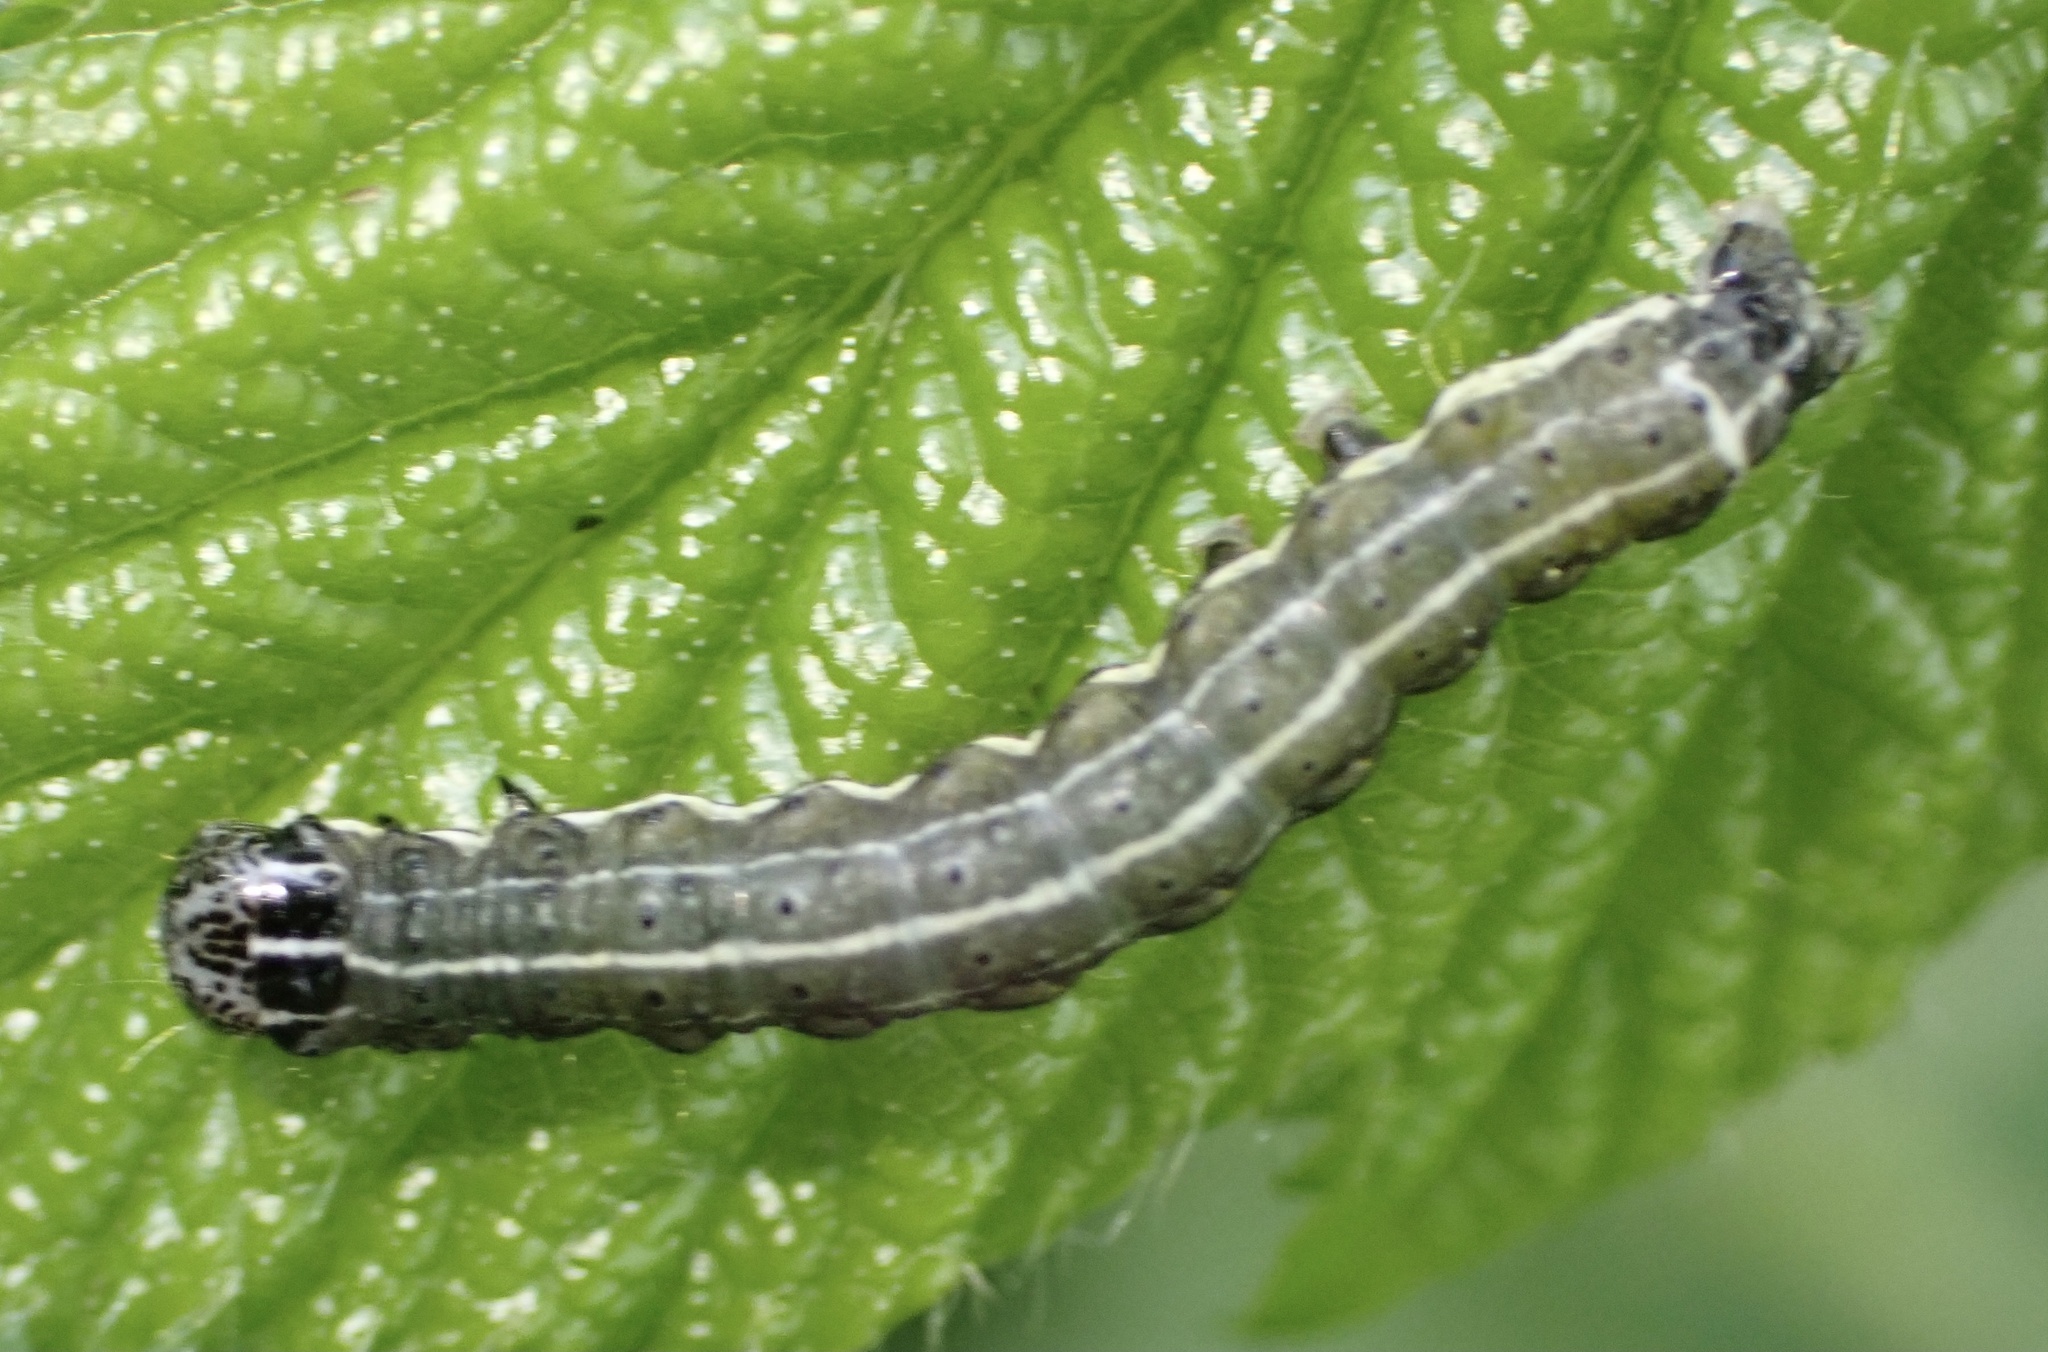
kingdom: Animalia
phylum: Arthropoda
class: Insecta
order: Lepidoptera
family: Noctuidae
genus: Orthosia
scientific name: Orthosia cruda
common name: Small quaker
